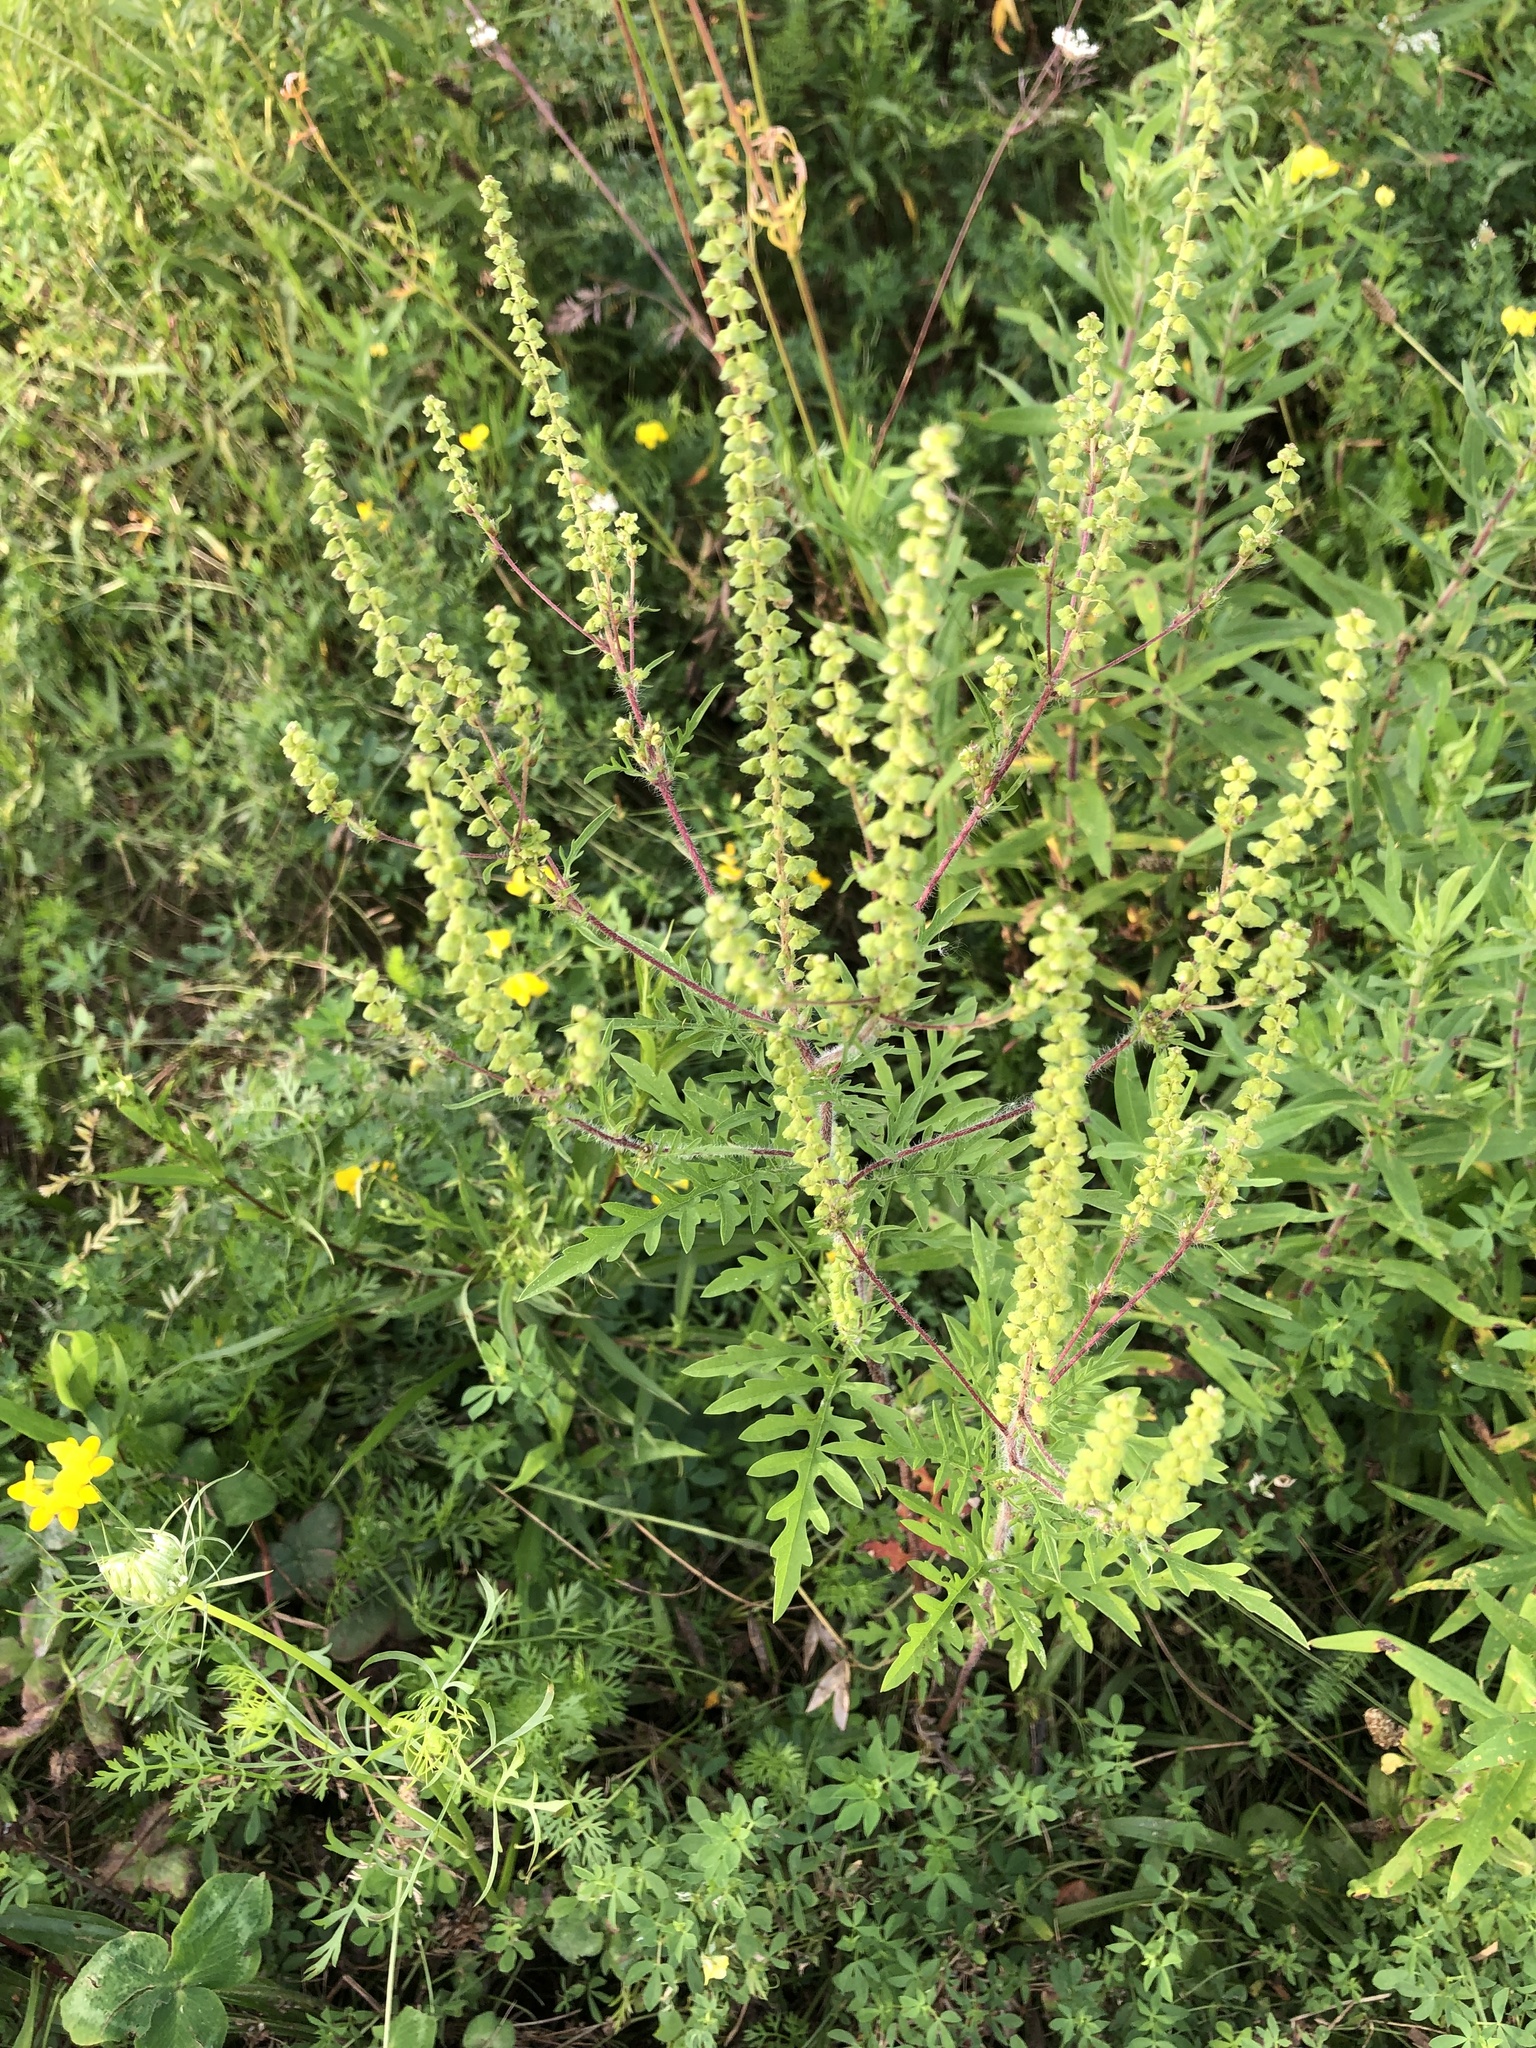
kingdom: Plantae
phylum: Tracheophyta
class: Magnoliopsida
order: Asterales
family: Asteraceae
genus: Ambrosia
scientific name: Ambrosia artemisiifolia
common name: Annual ragweed
